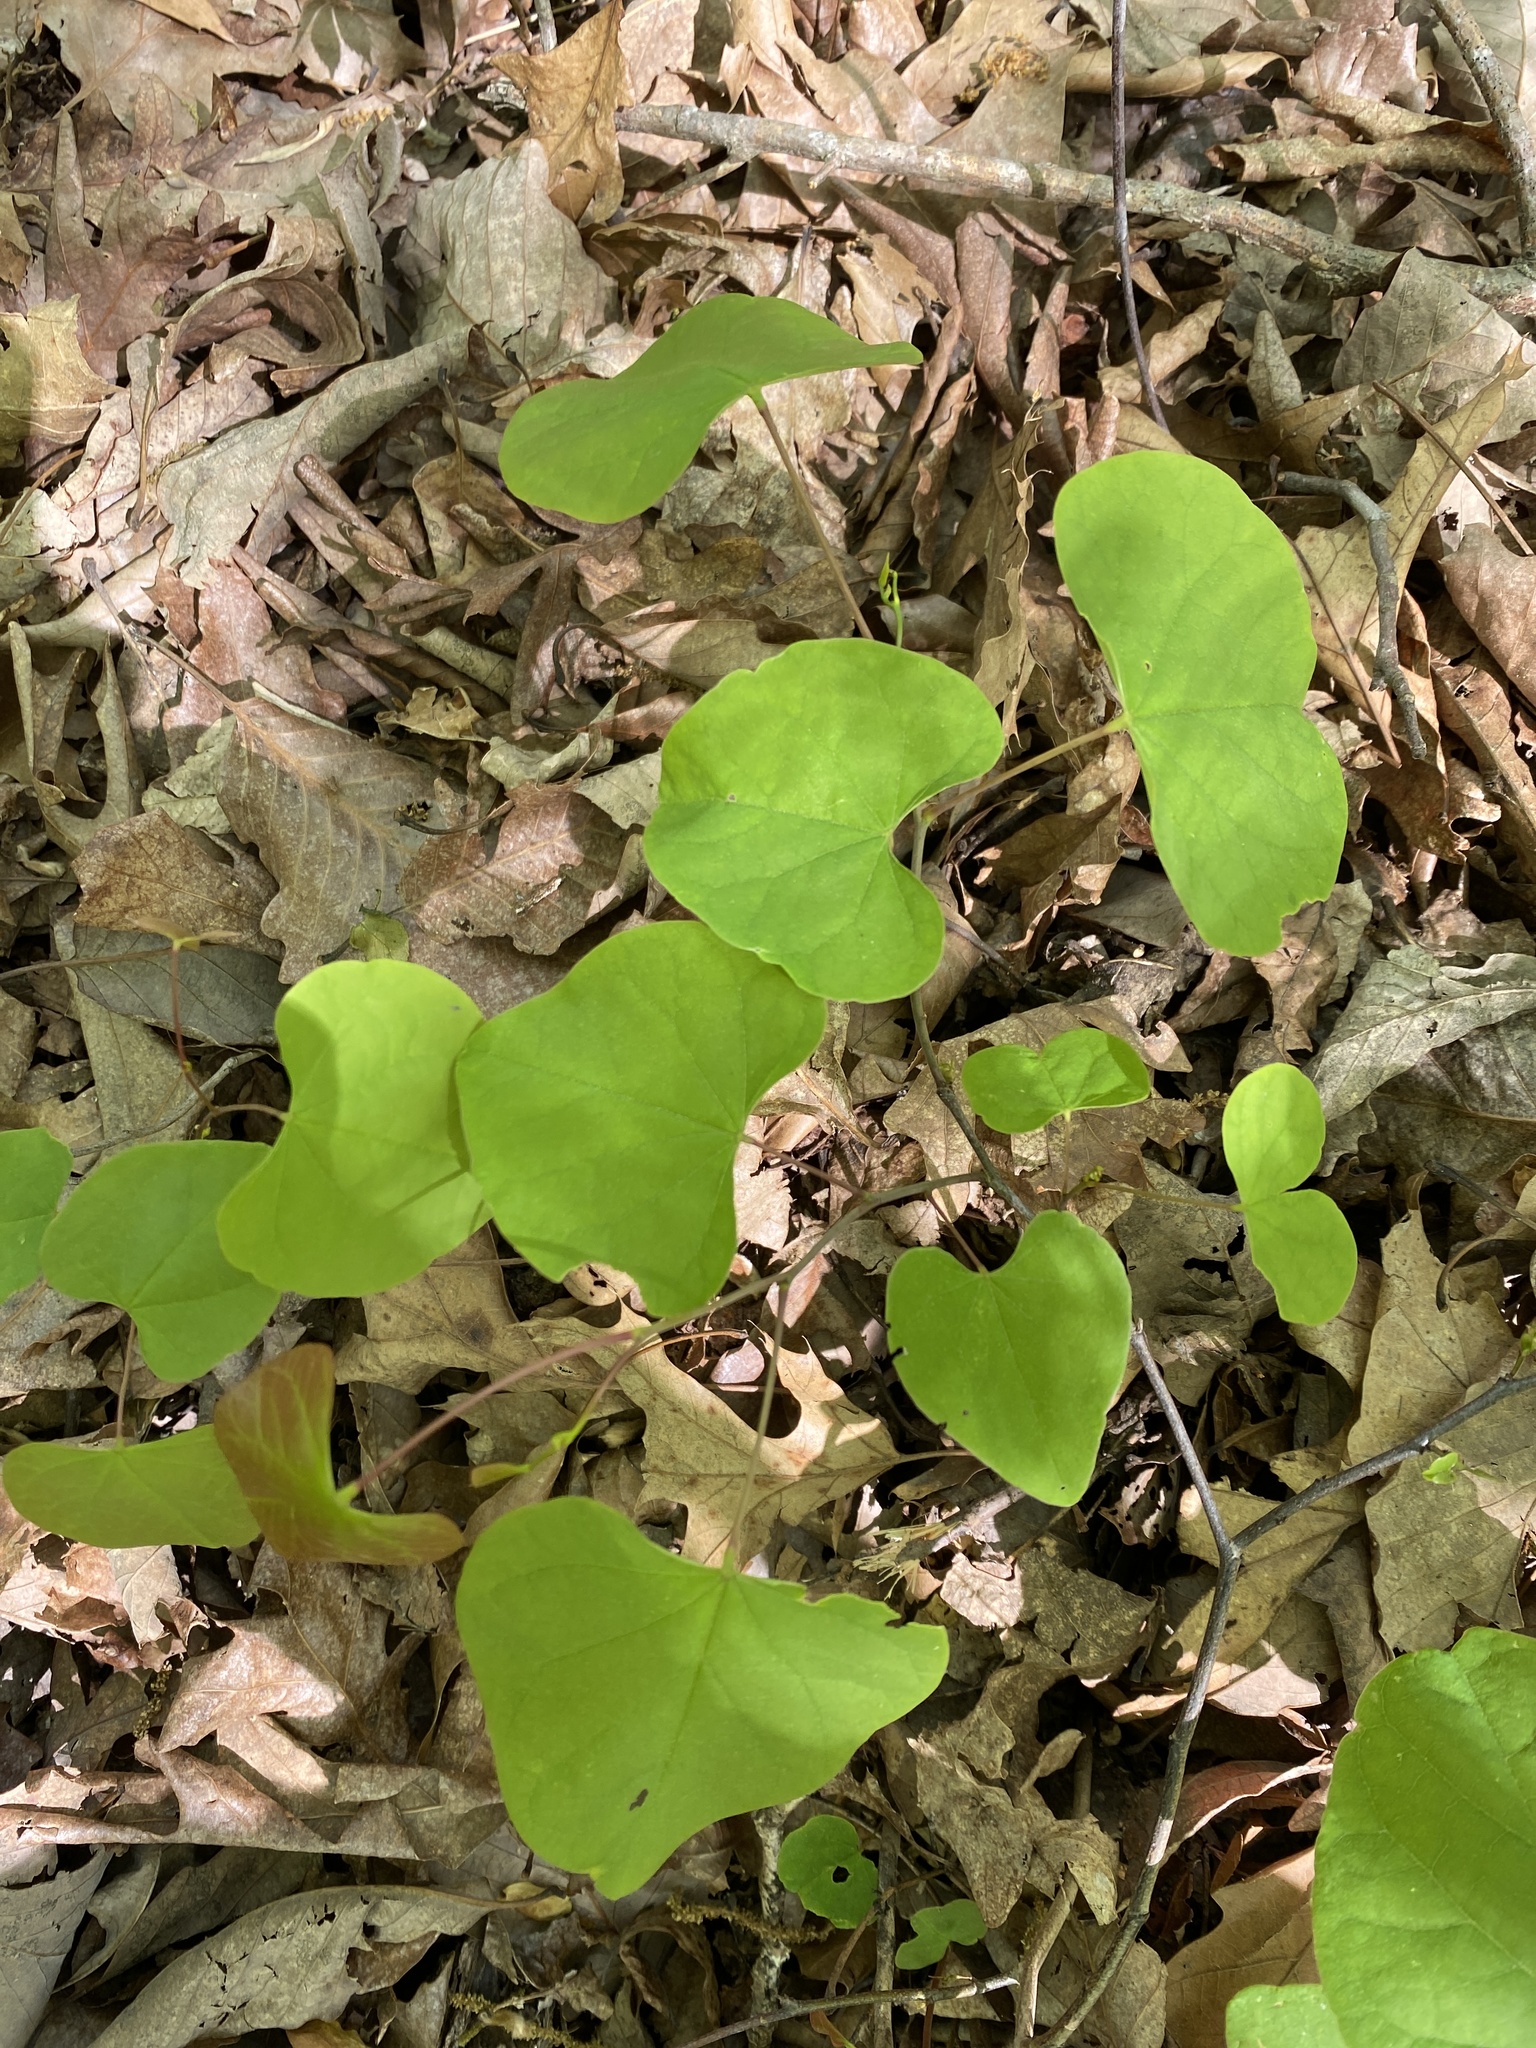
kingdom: Plantae
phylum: Tracheophyta
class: Magnoliopsida
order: Fabales
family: Fabaceae
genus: Cercis
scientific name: Cercis canadensis
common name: Eastern redbud
